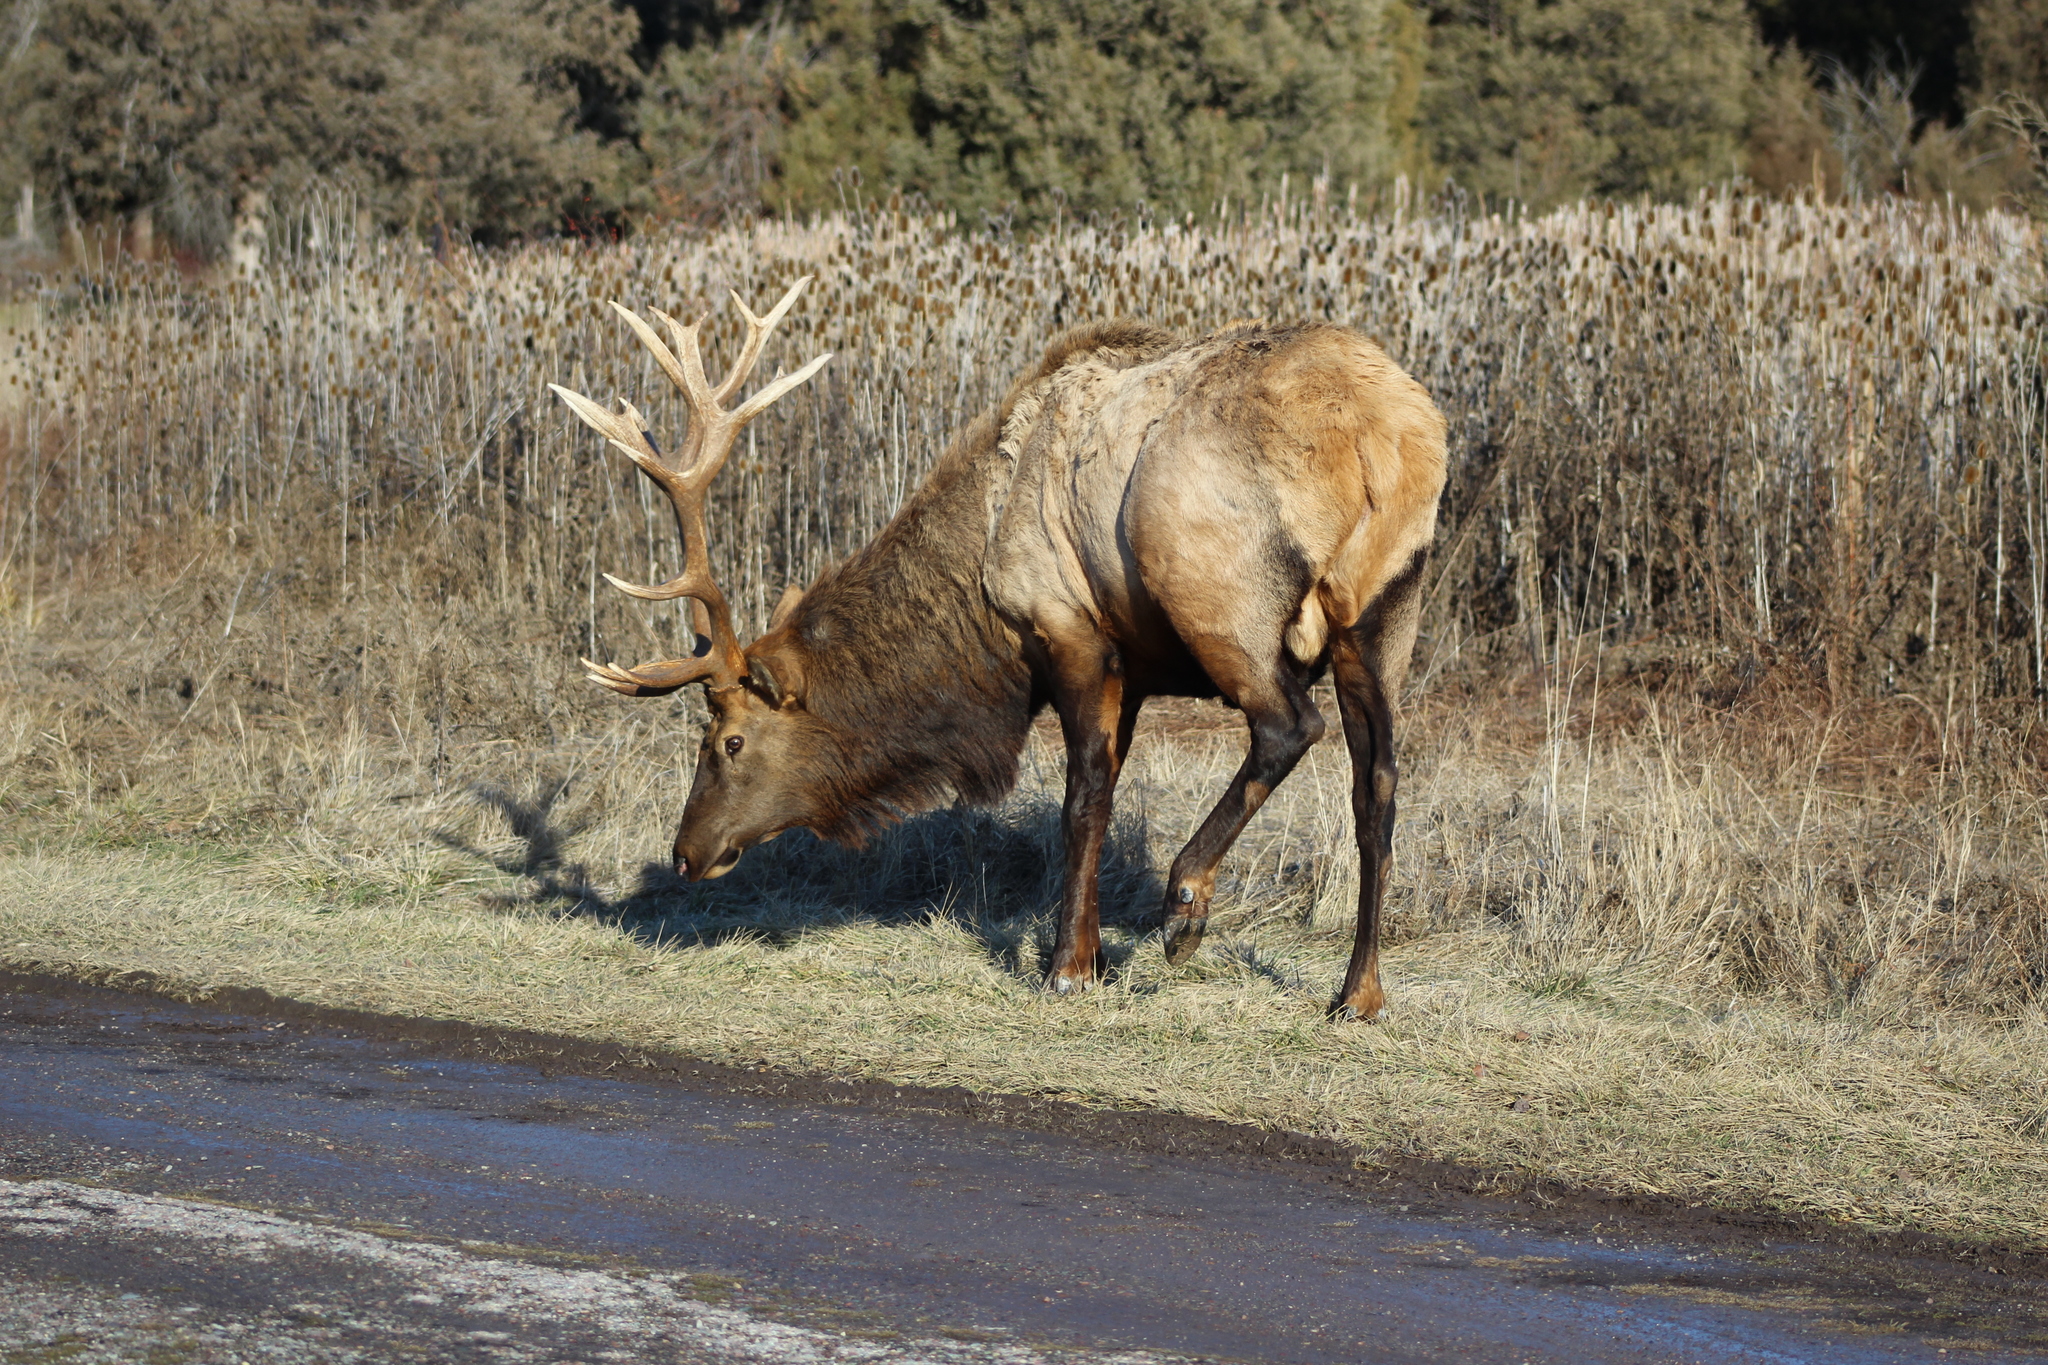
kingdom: Animalia
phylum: Chordata
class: Mammalia
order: Artiodactyla
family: Cervidae
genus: Cervus
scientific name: Cervus elaphus
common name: Red deer
